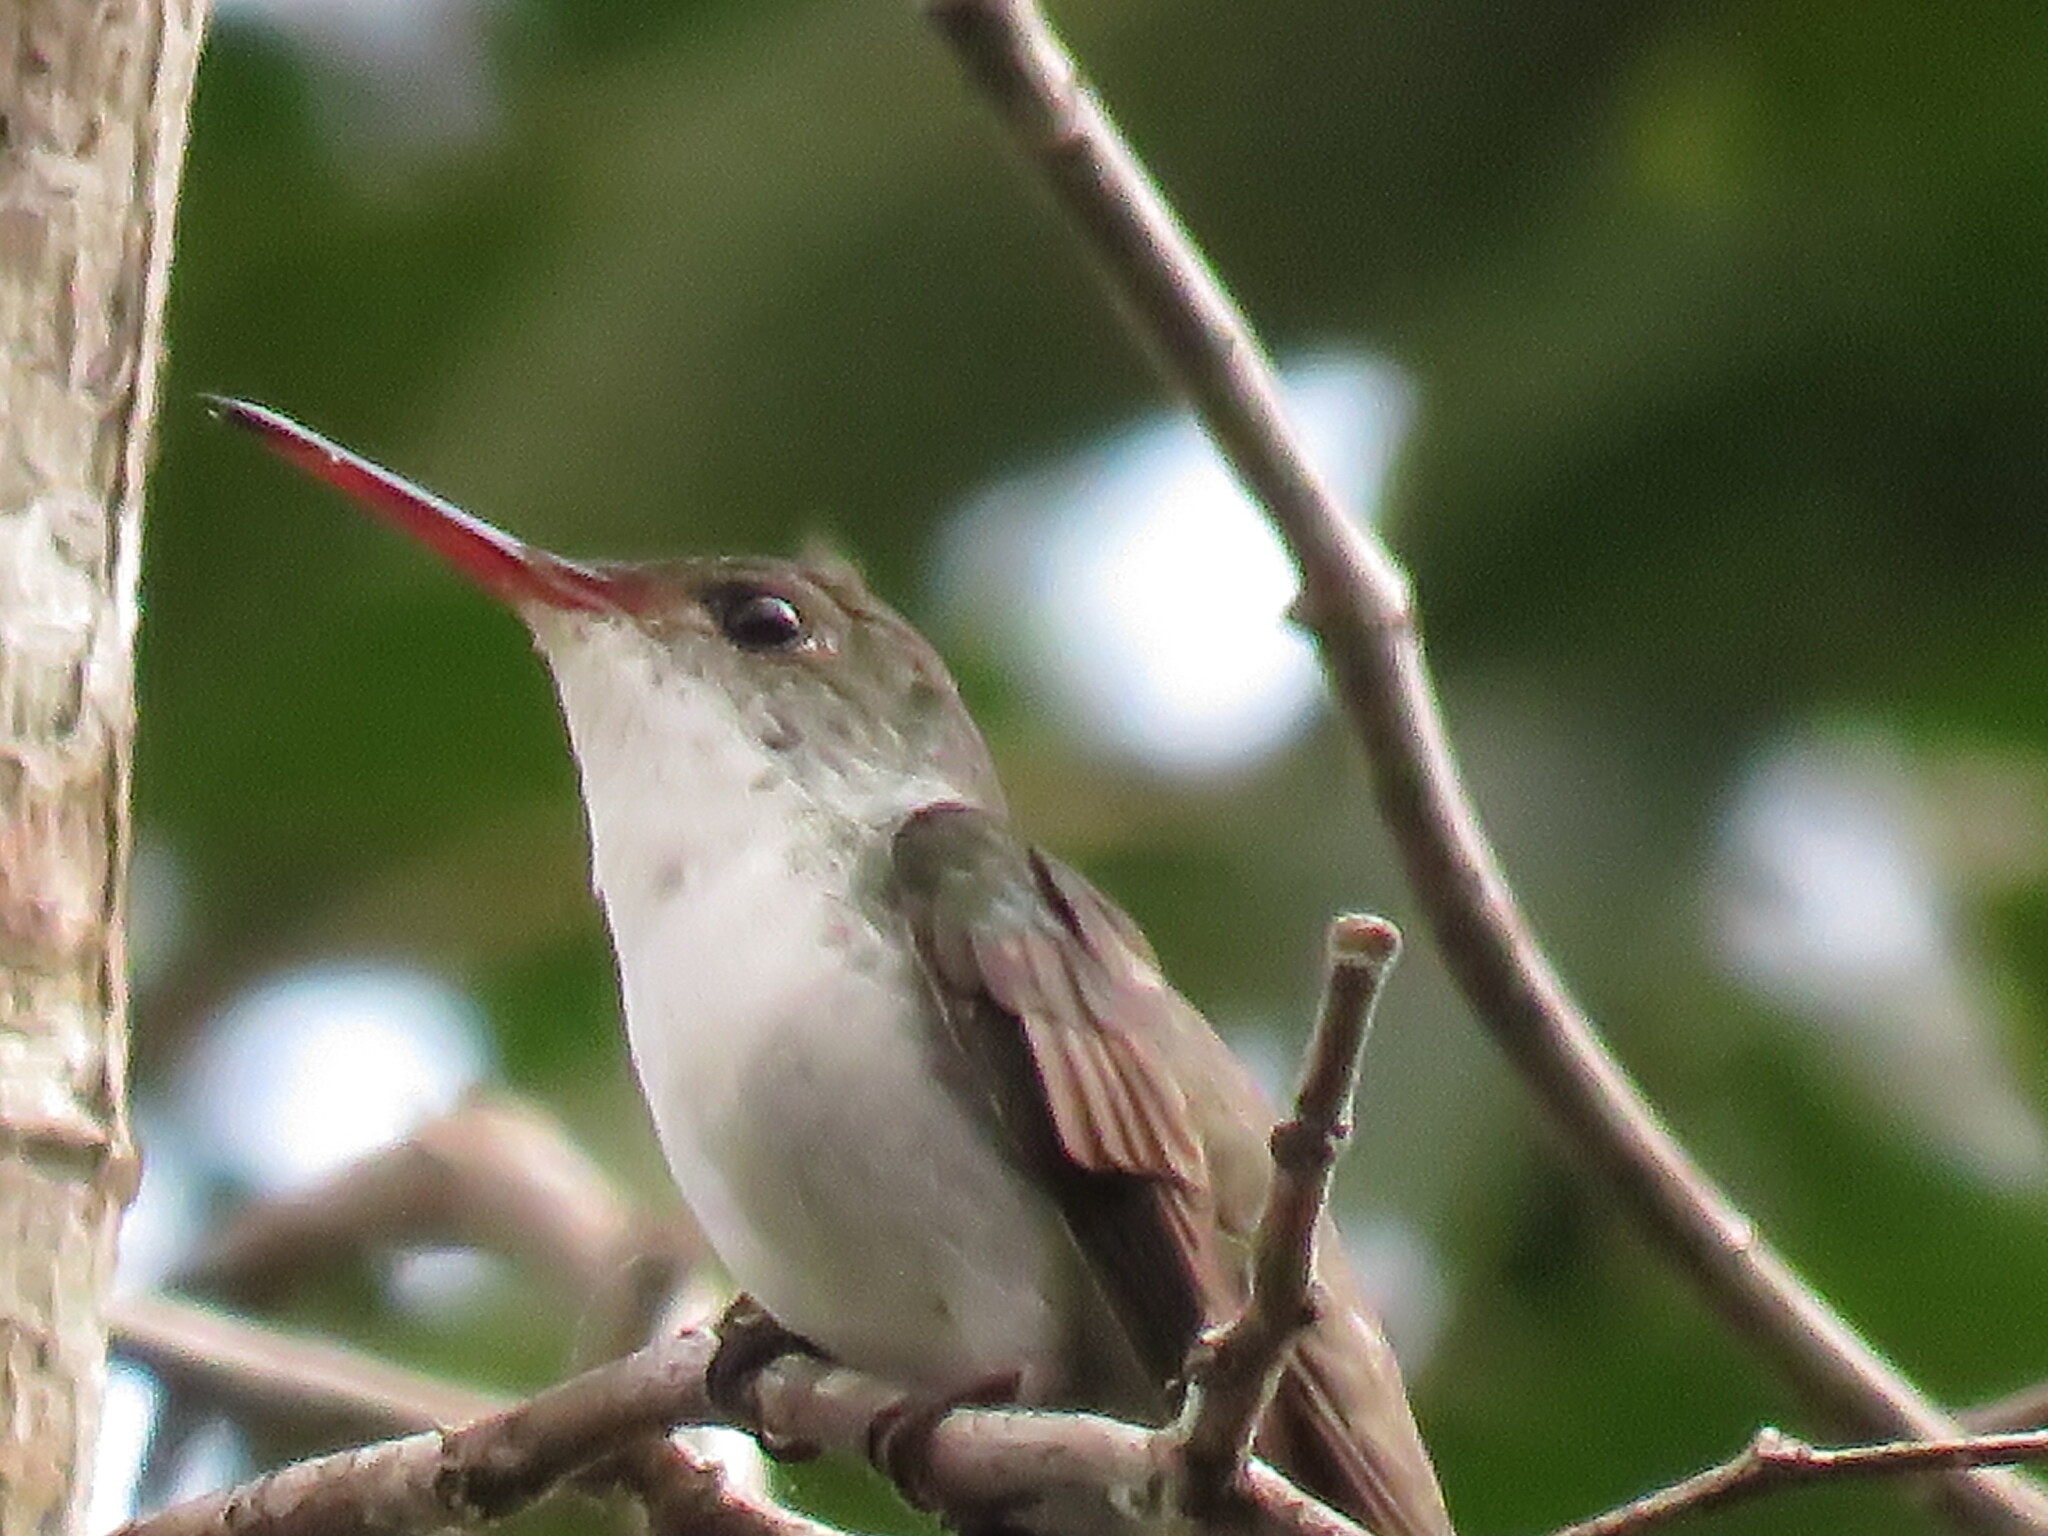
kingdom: Animalia
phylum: Chordata
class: Aves
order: Apodiformes
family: Trochilidae
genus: Chlorestes
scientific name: Chlorestes candida
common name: White-bellied emerald
